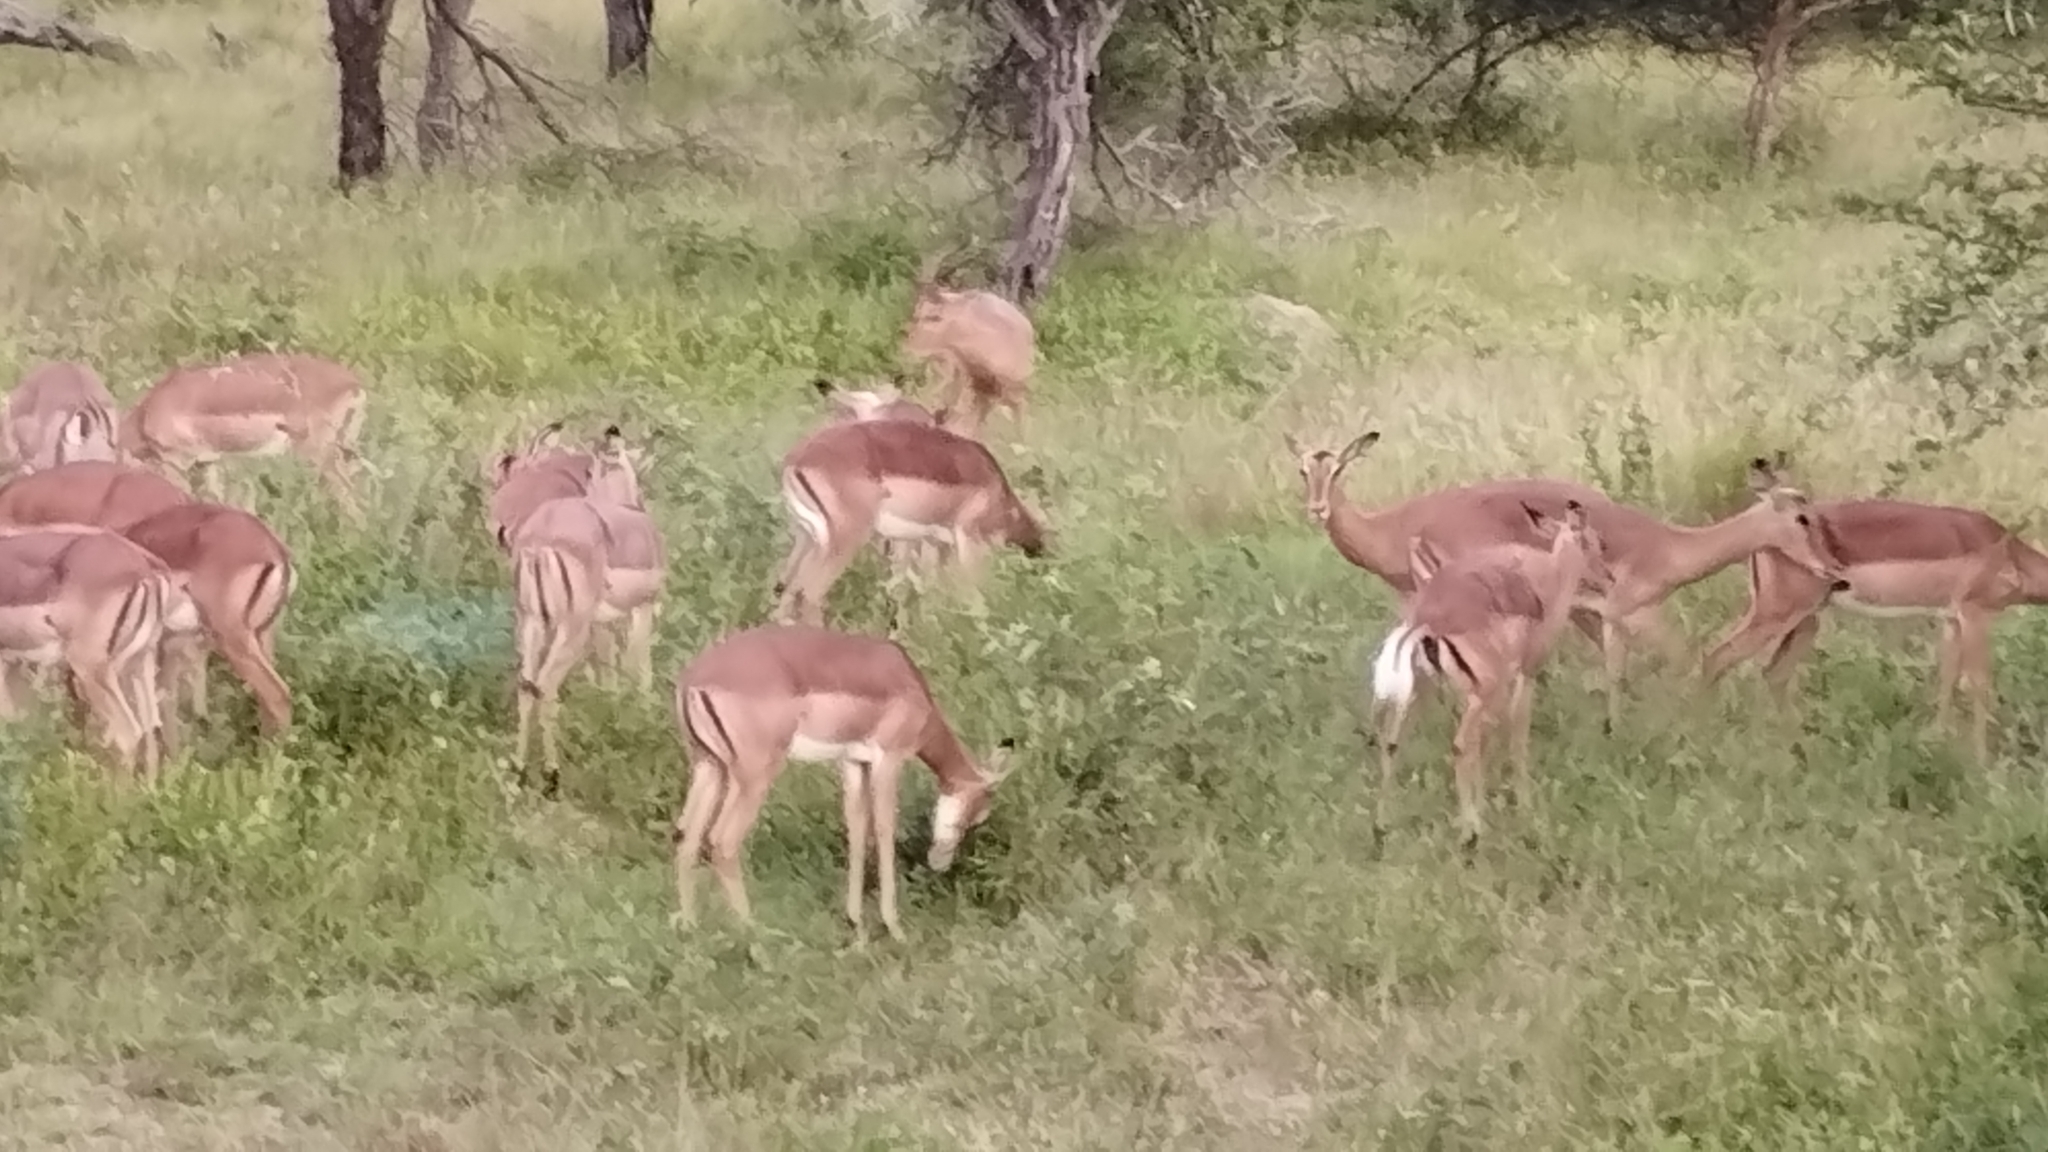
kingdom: Animalia
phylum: Chordata
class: Mammalia
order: Artiodactyla
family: Bovidae
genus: Aepyceros
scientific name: Aepyceros melampus
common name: Impala
